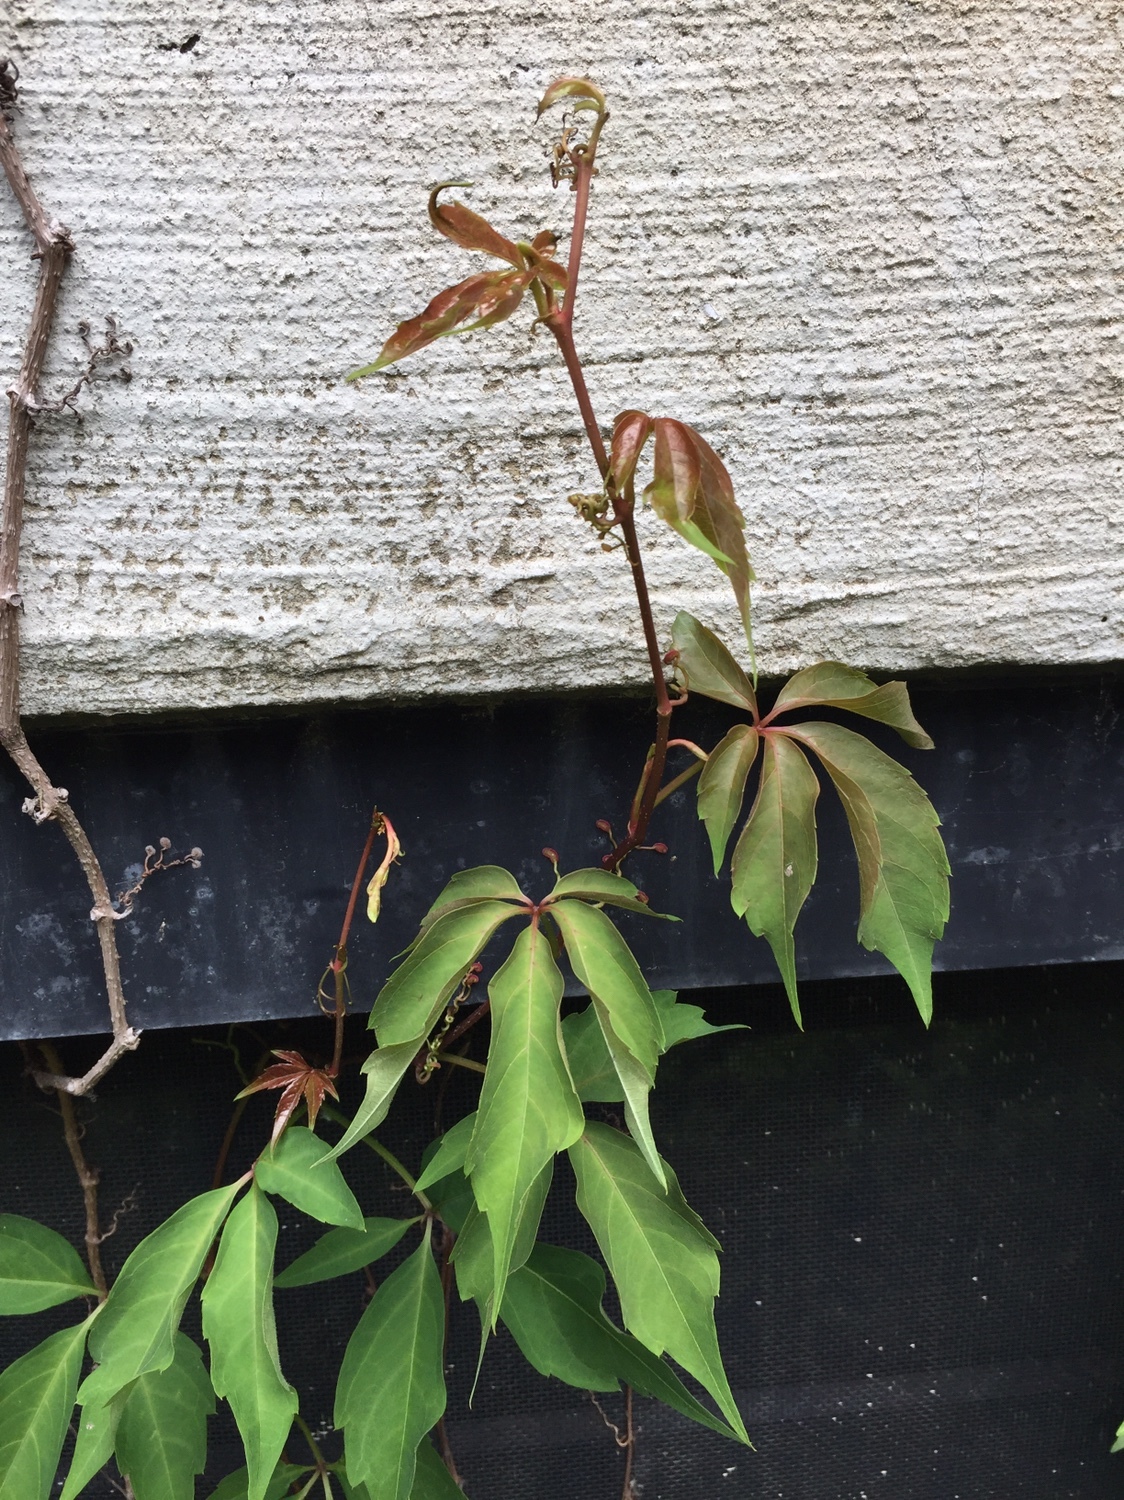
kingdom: Plantae
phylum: Tracheophyta
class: Magnoliopsida
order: Vitales
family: Vitaceae
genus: Parthenocissus
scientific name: Parthenocissus quinquefolia
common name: Virginia-creeper
